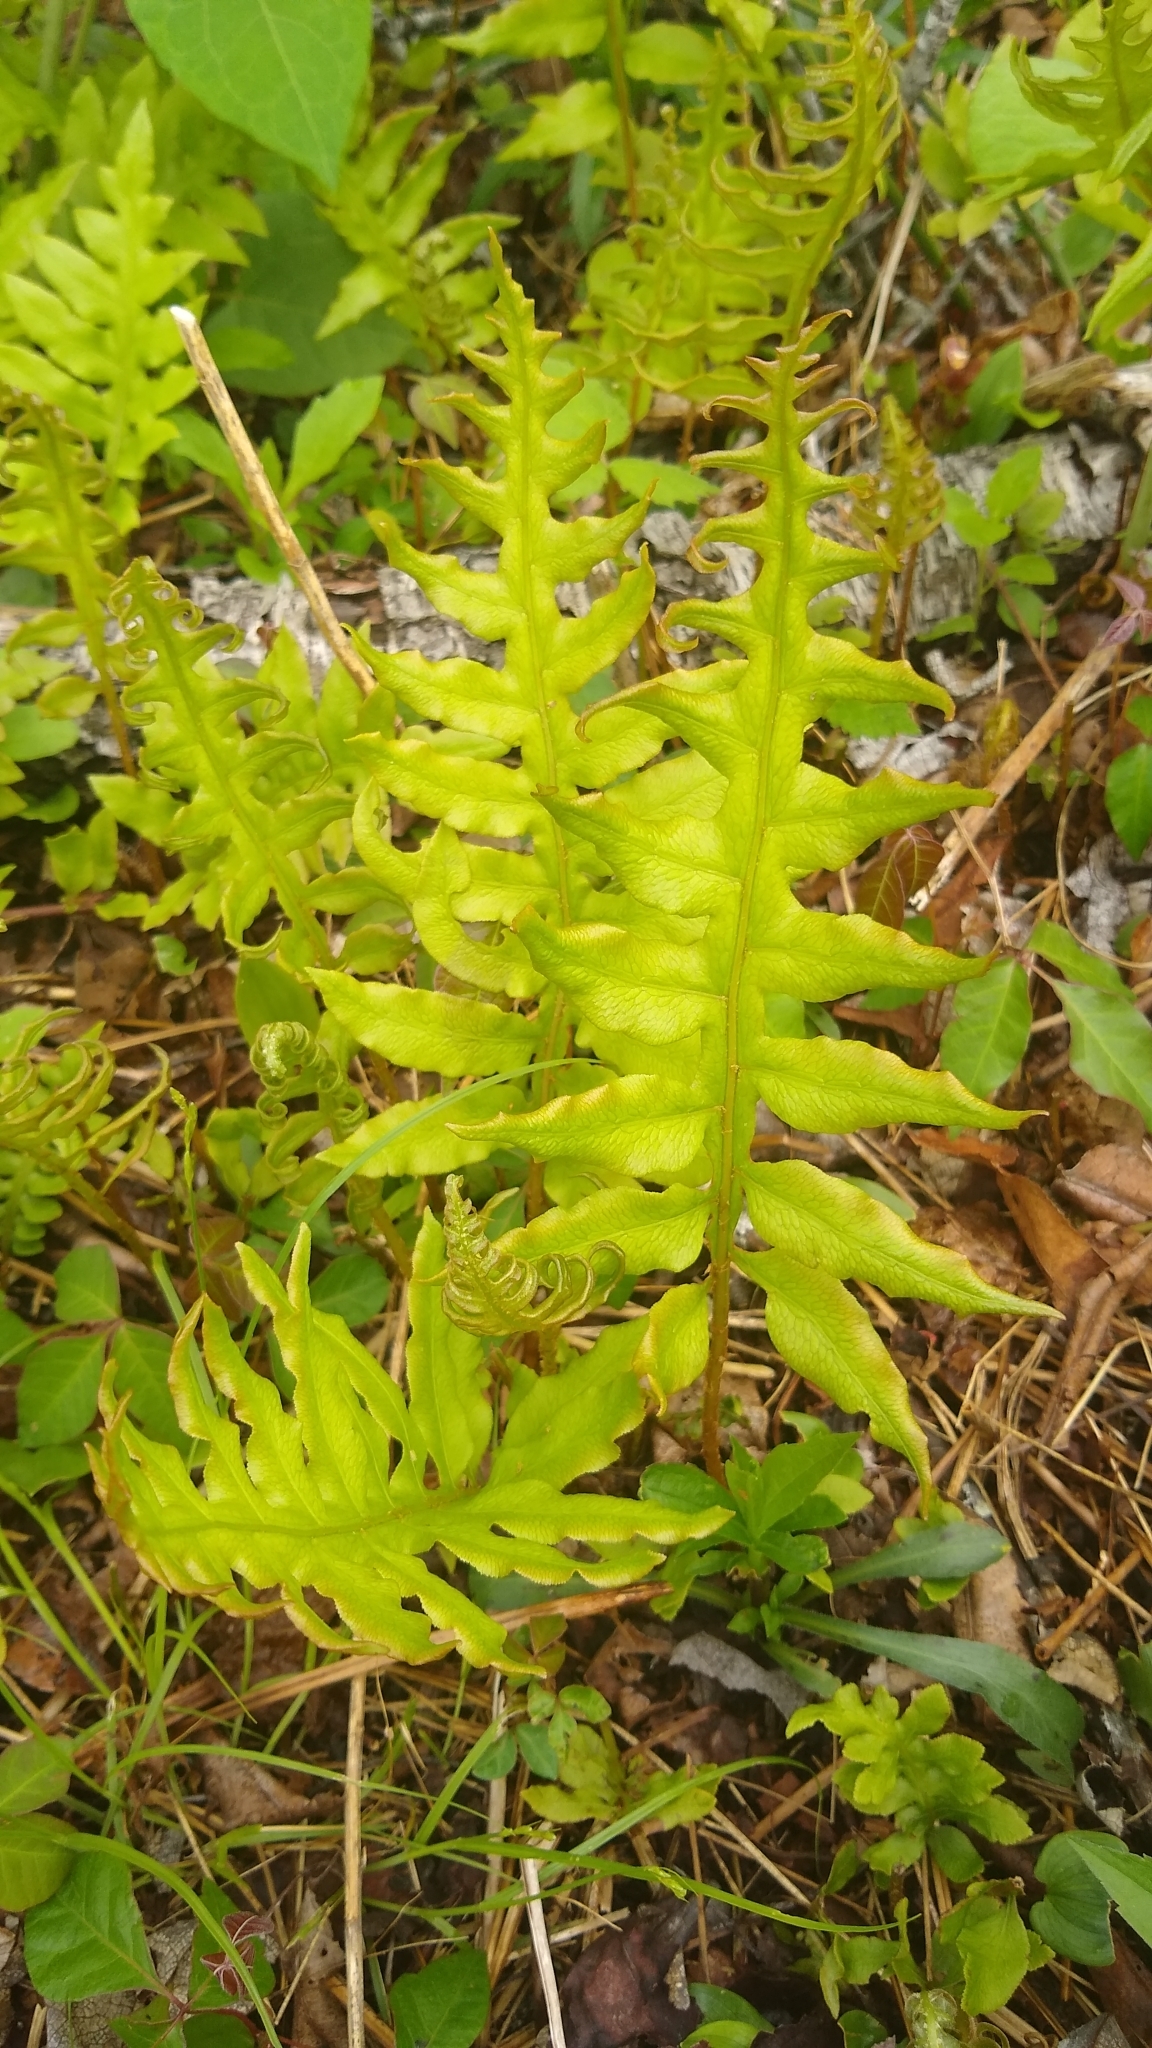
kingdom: Plantae
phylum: Tracheophyta
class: Polypodiopsida
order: Polypodiales
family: Blechnaceae
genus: Lorinseria
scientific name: Lorinseria areolata
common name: Dwarf chain fern
